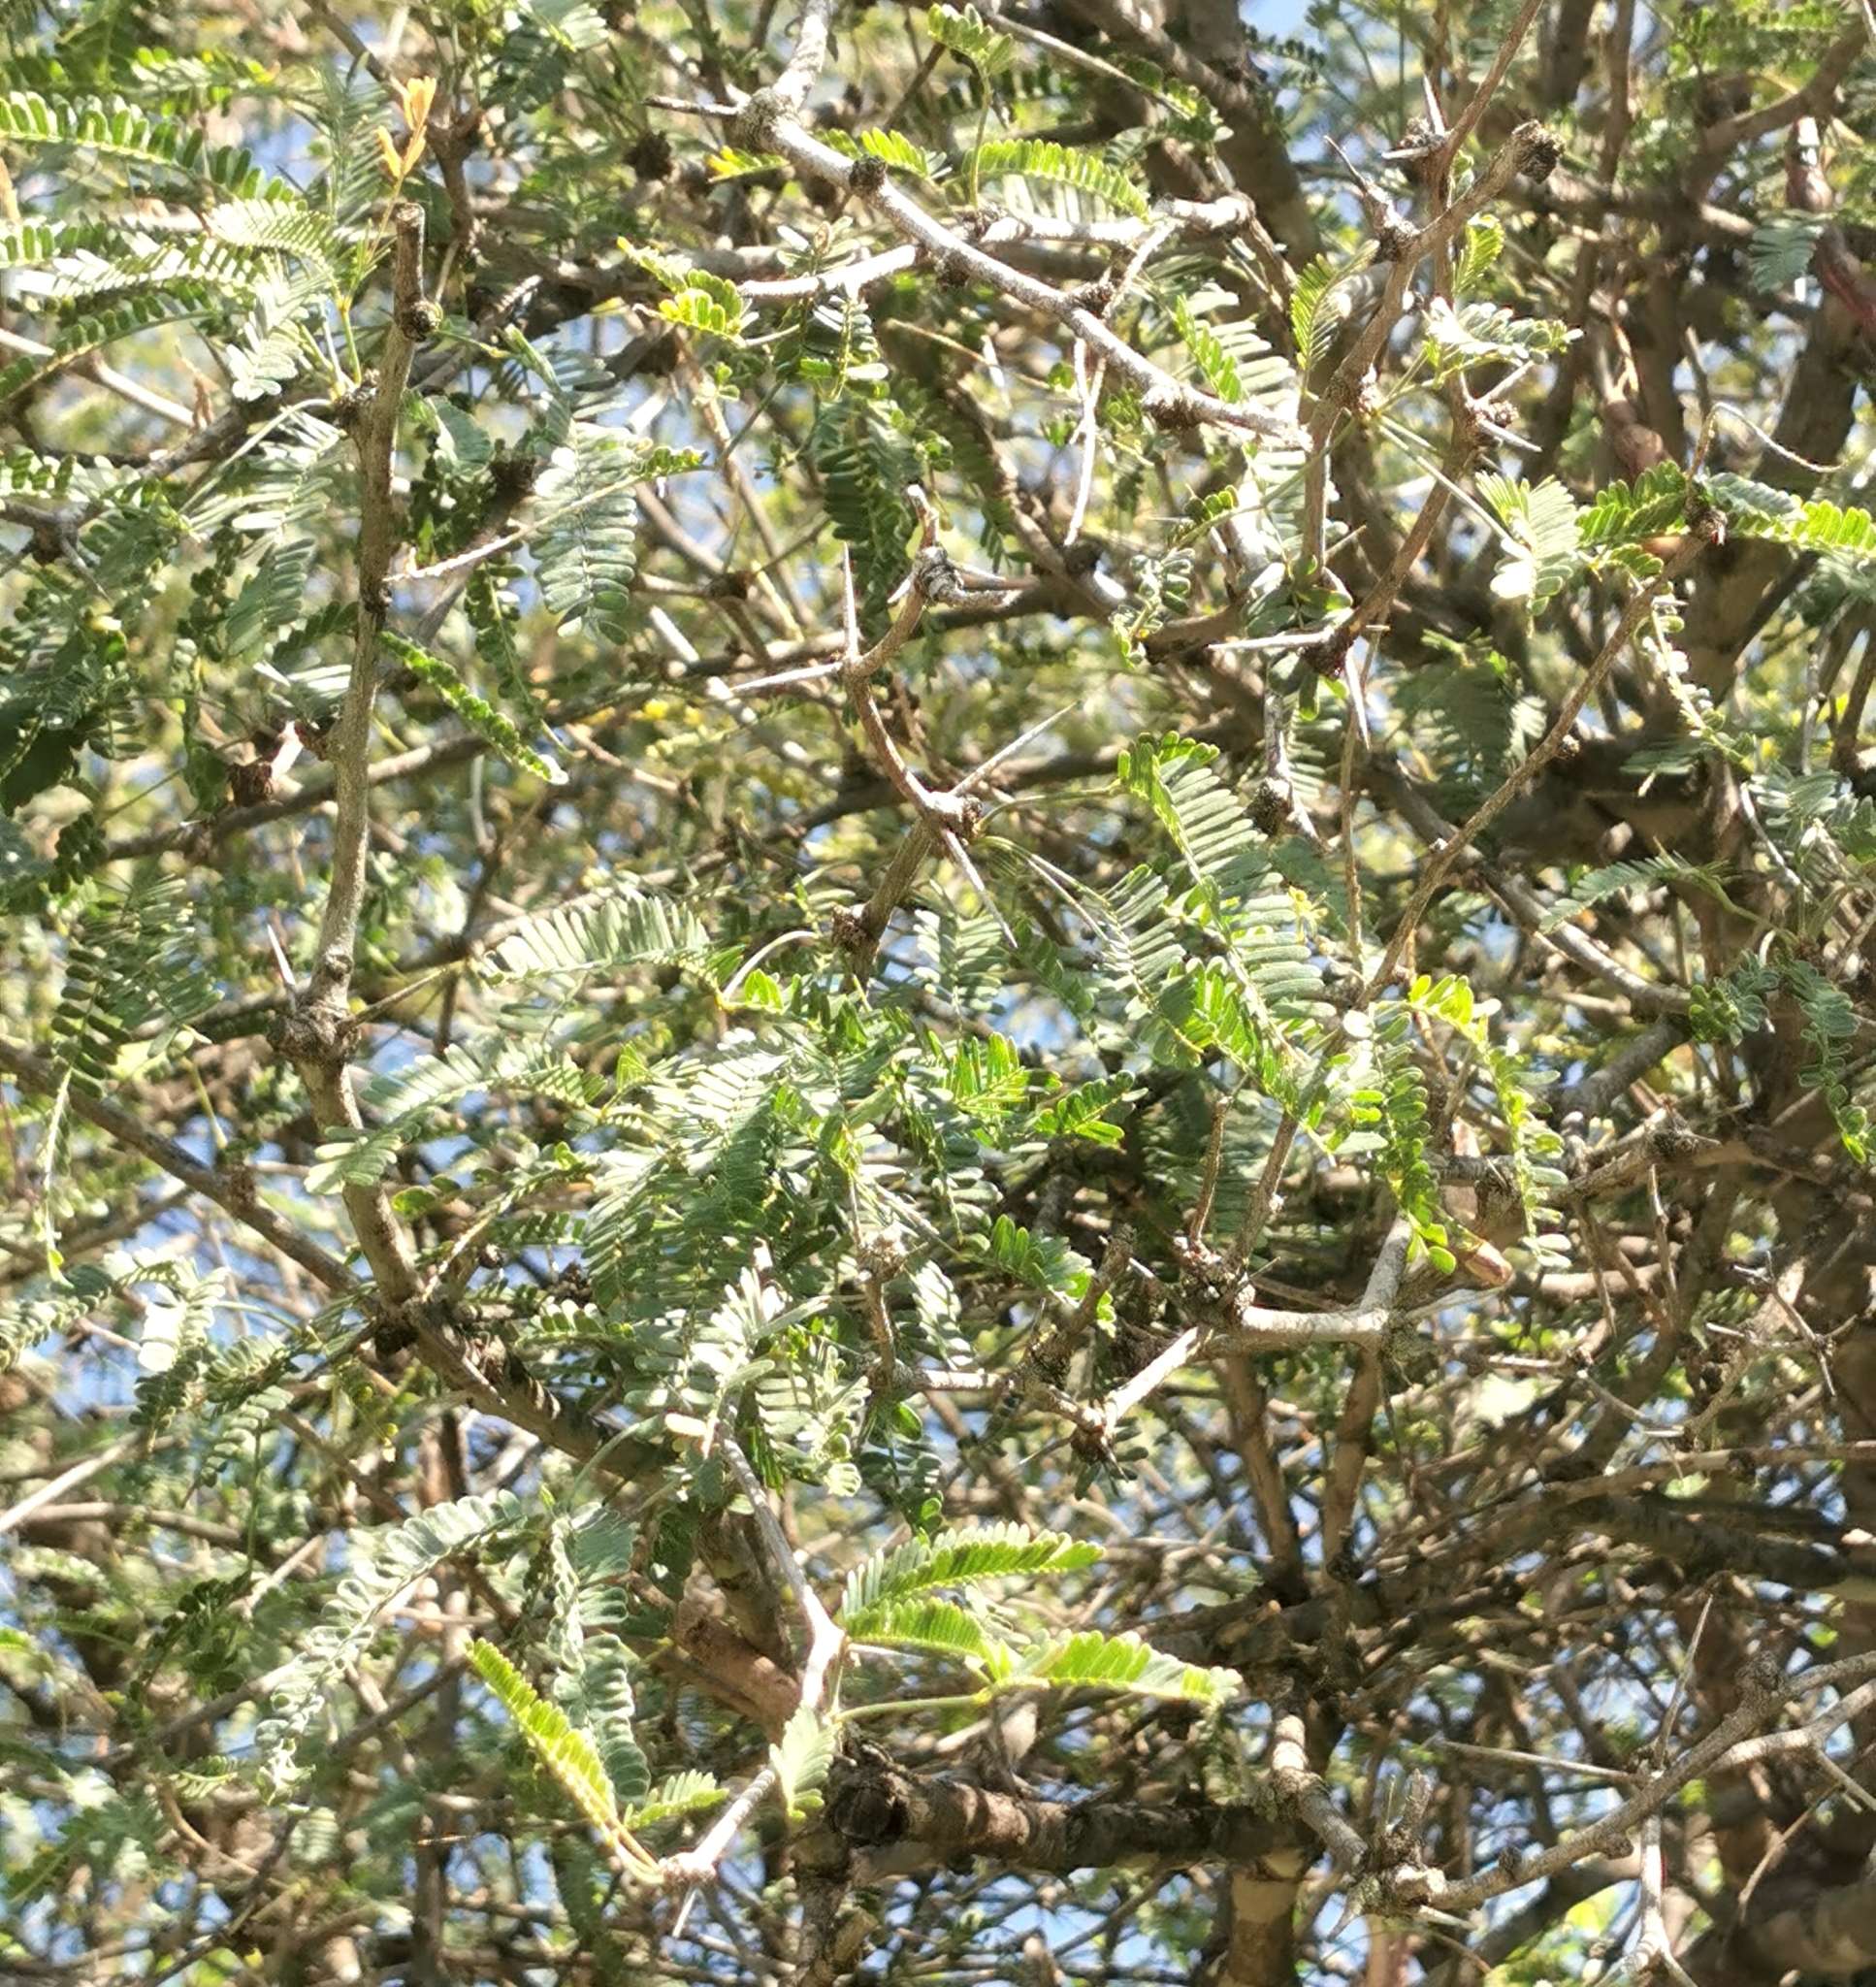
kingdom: Plantae
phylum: Tracheophyta
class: Magnoliopsida
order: Fabales
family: Fabaceae
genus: Prosopis
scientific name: Prosopis laevigata
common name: Smooth mesquite
